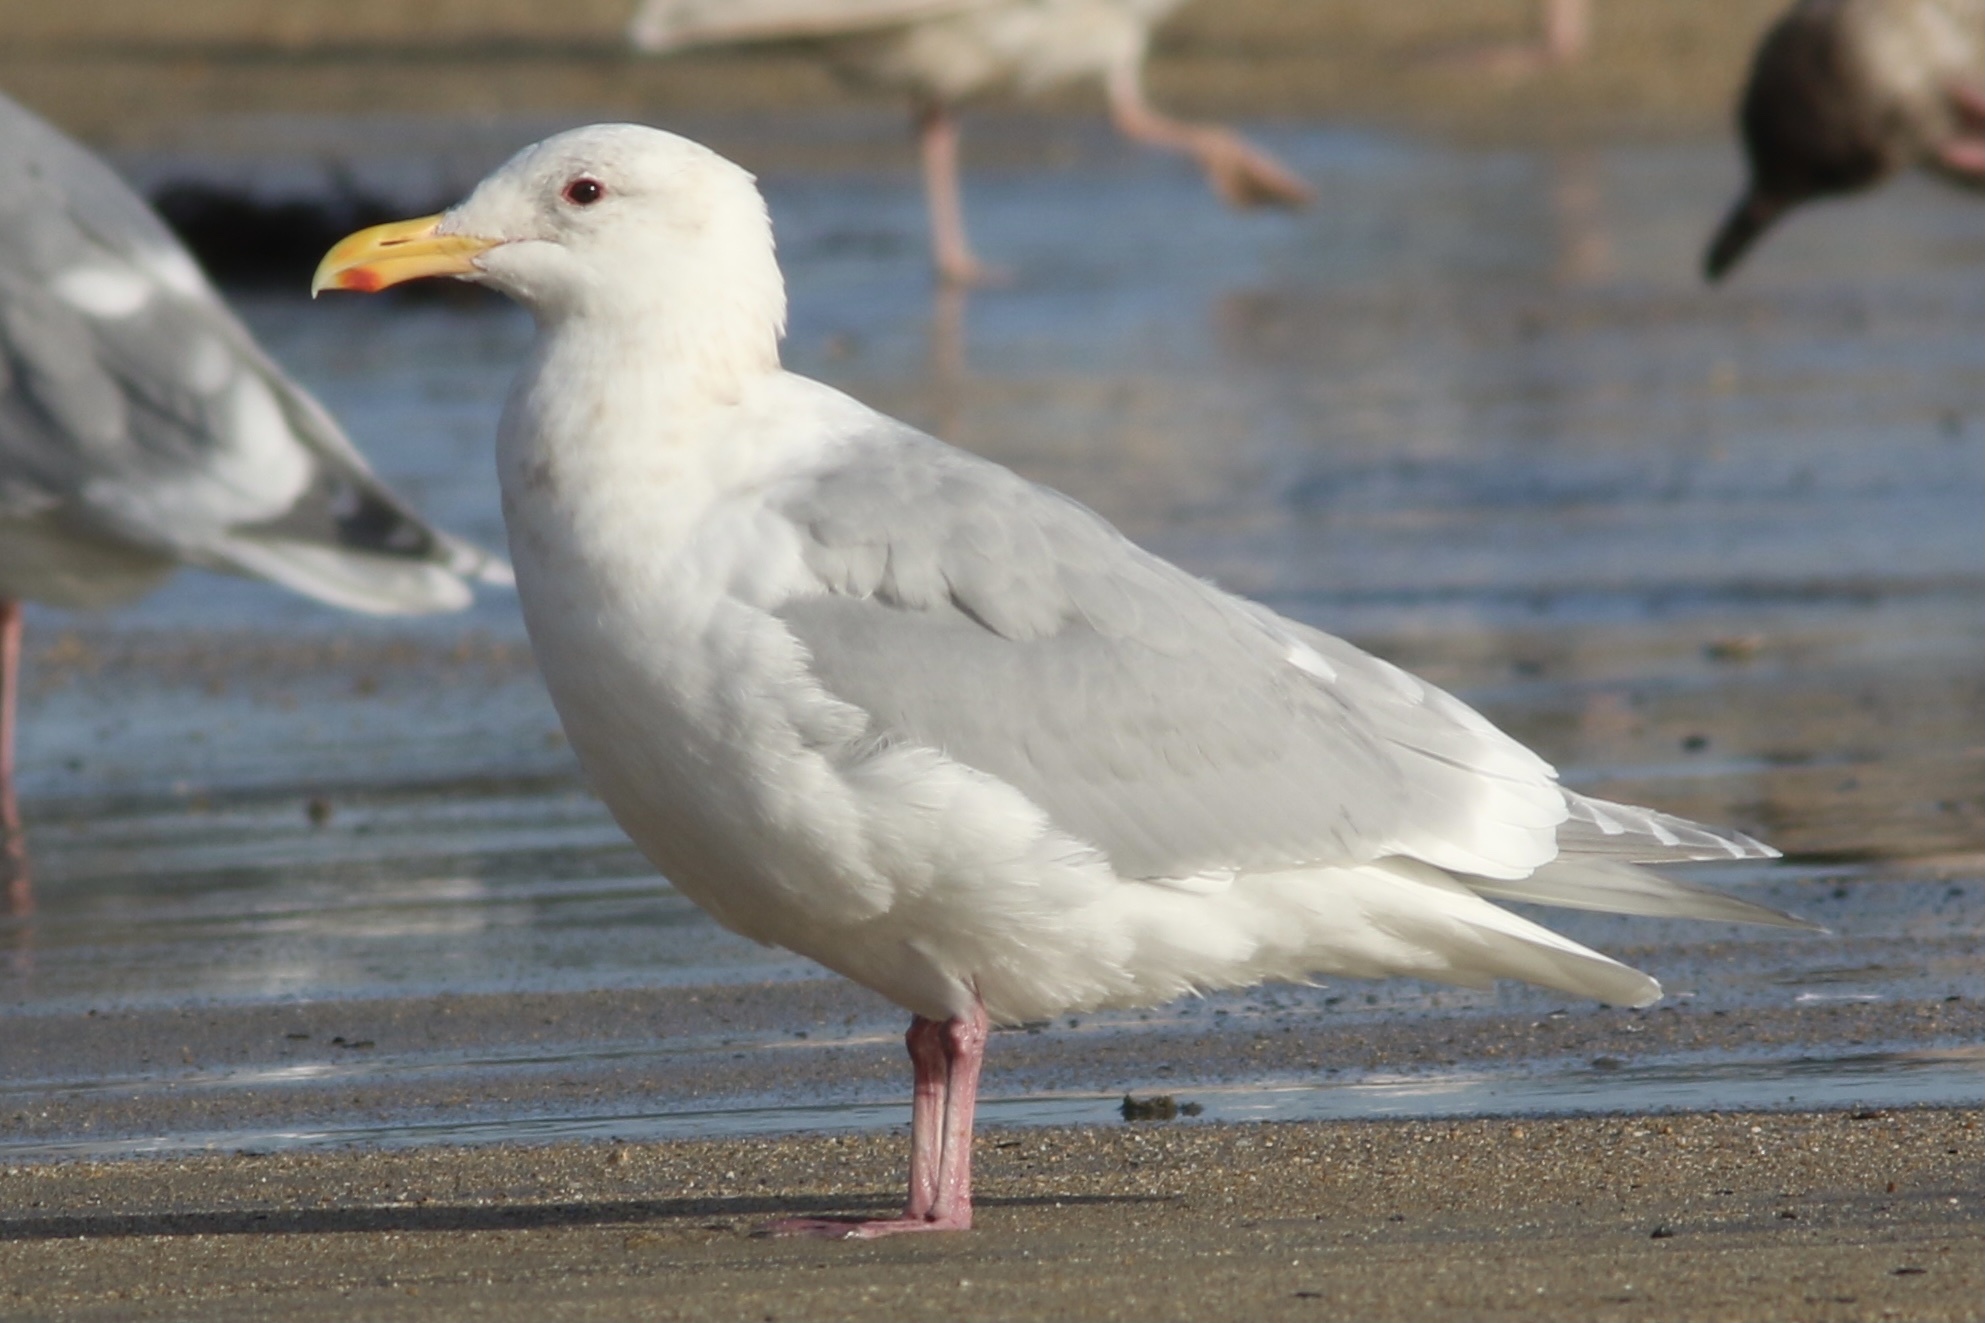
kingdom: Animalia
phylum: Chordata
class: Aves
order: Charadriiformes
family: Laridae
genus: Larus
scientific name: Larus glaucescens
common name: Glaucous-winged gull
